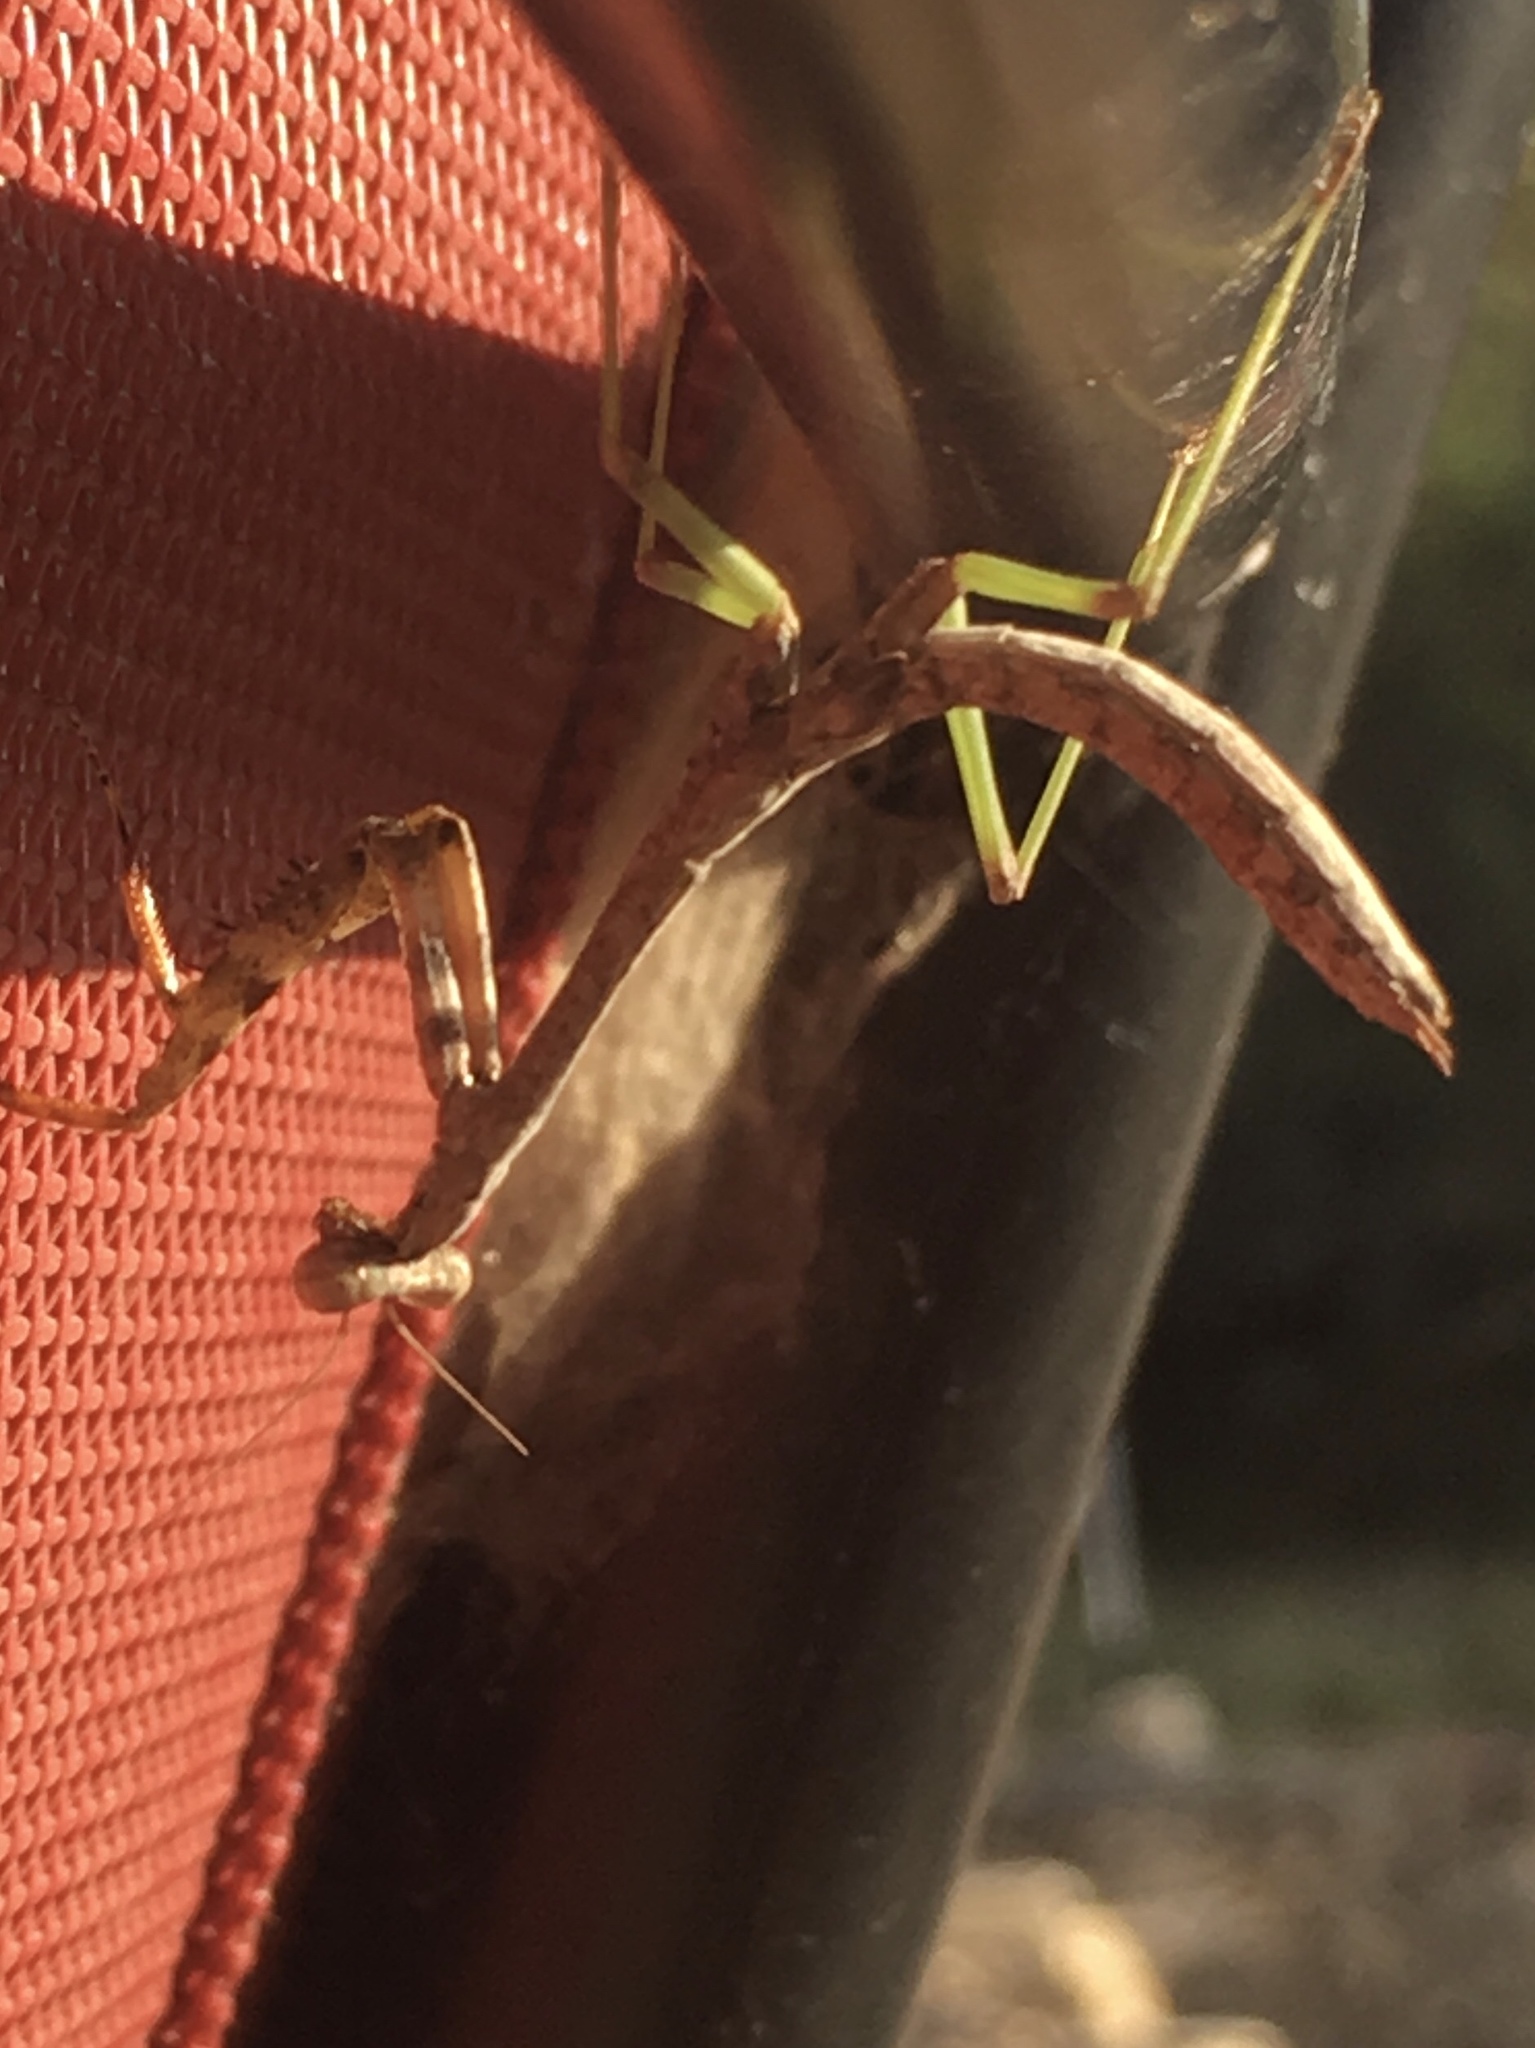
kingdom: Animalia
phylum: Arthropoda
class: Insecta
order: Mantodea
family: Mantidae
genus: Stagmomantis
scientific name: Stagmomantis carolina
